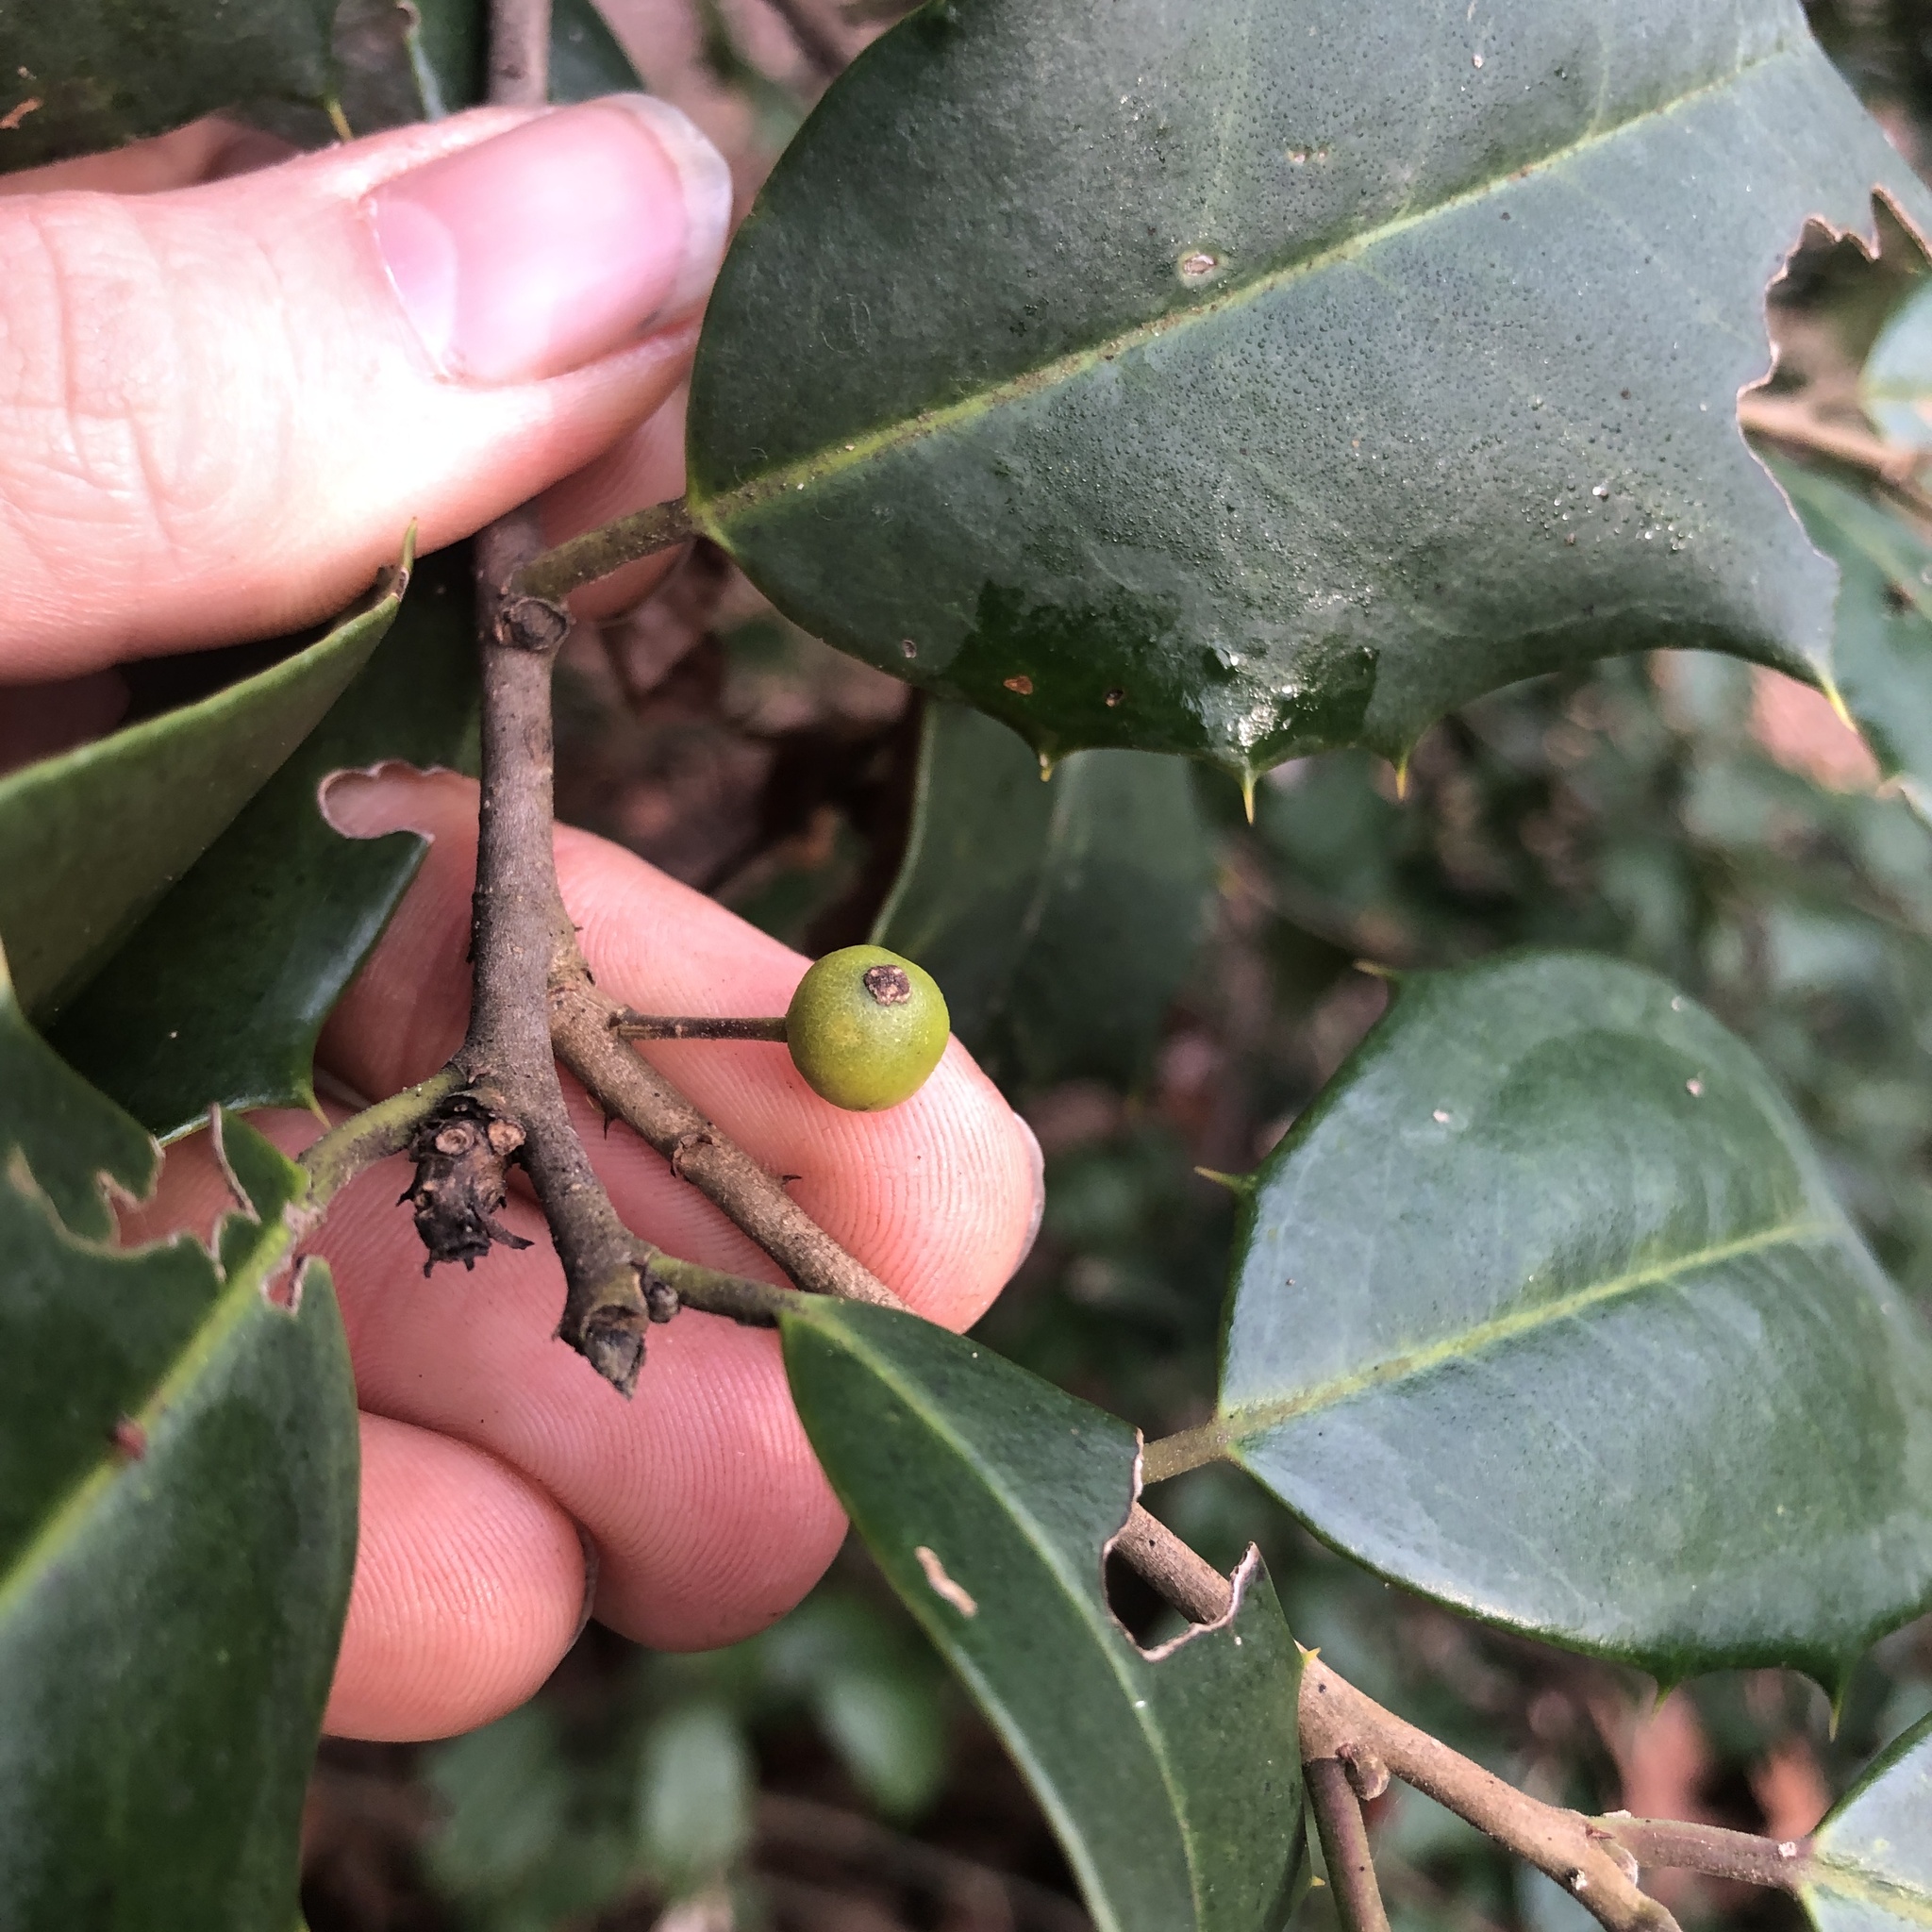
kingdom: Animalia
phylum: Arthropoda
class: Insecta
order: Diptera
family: Cecidomyiidae
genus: Asphondylia
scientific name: Asphondylia ilicicola
